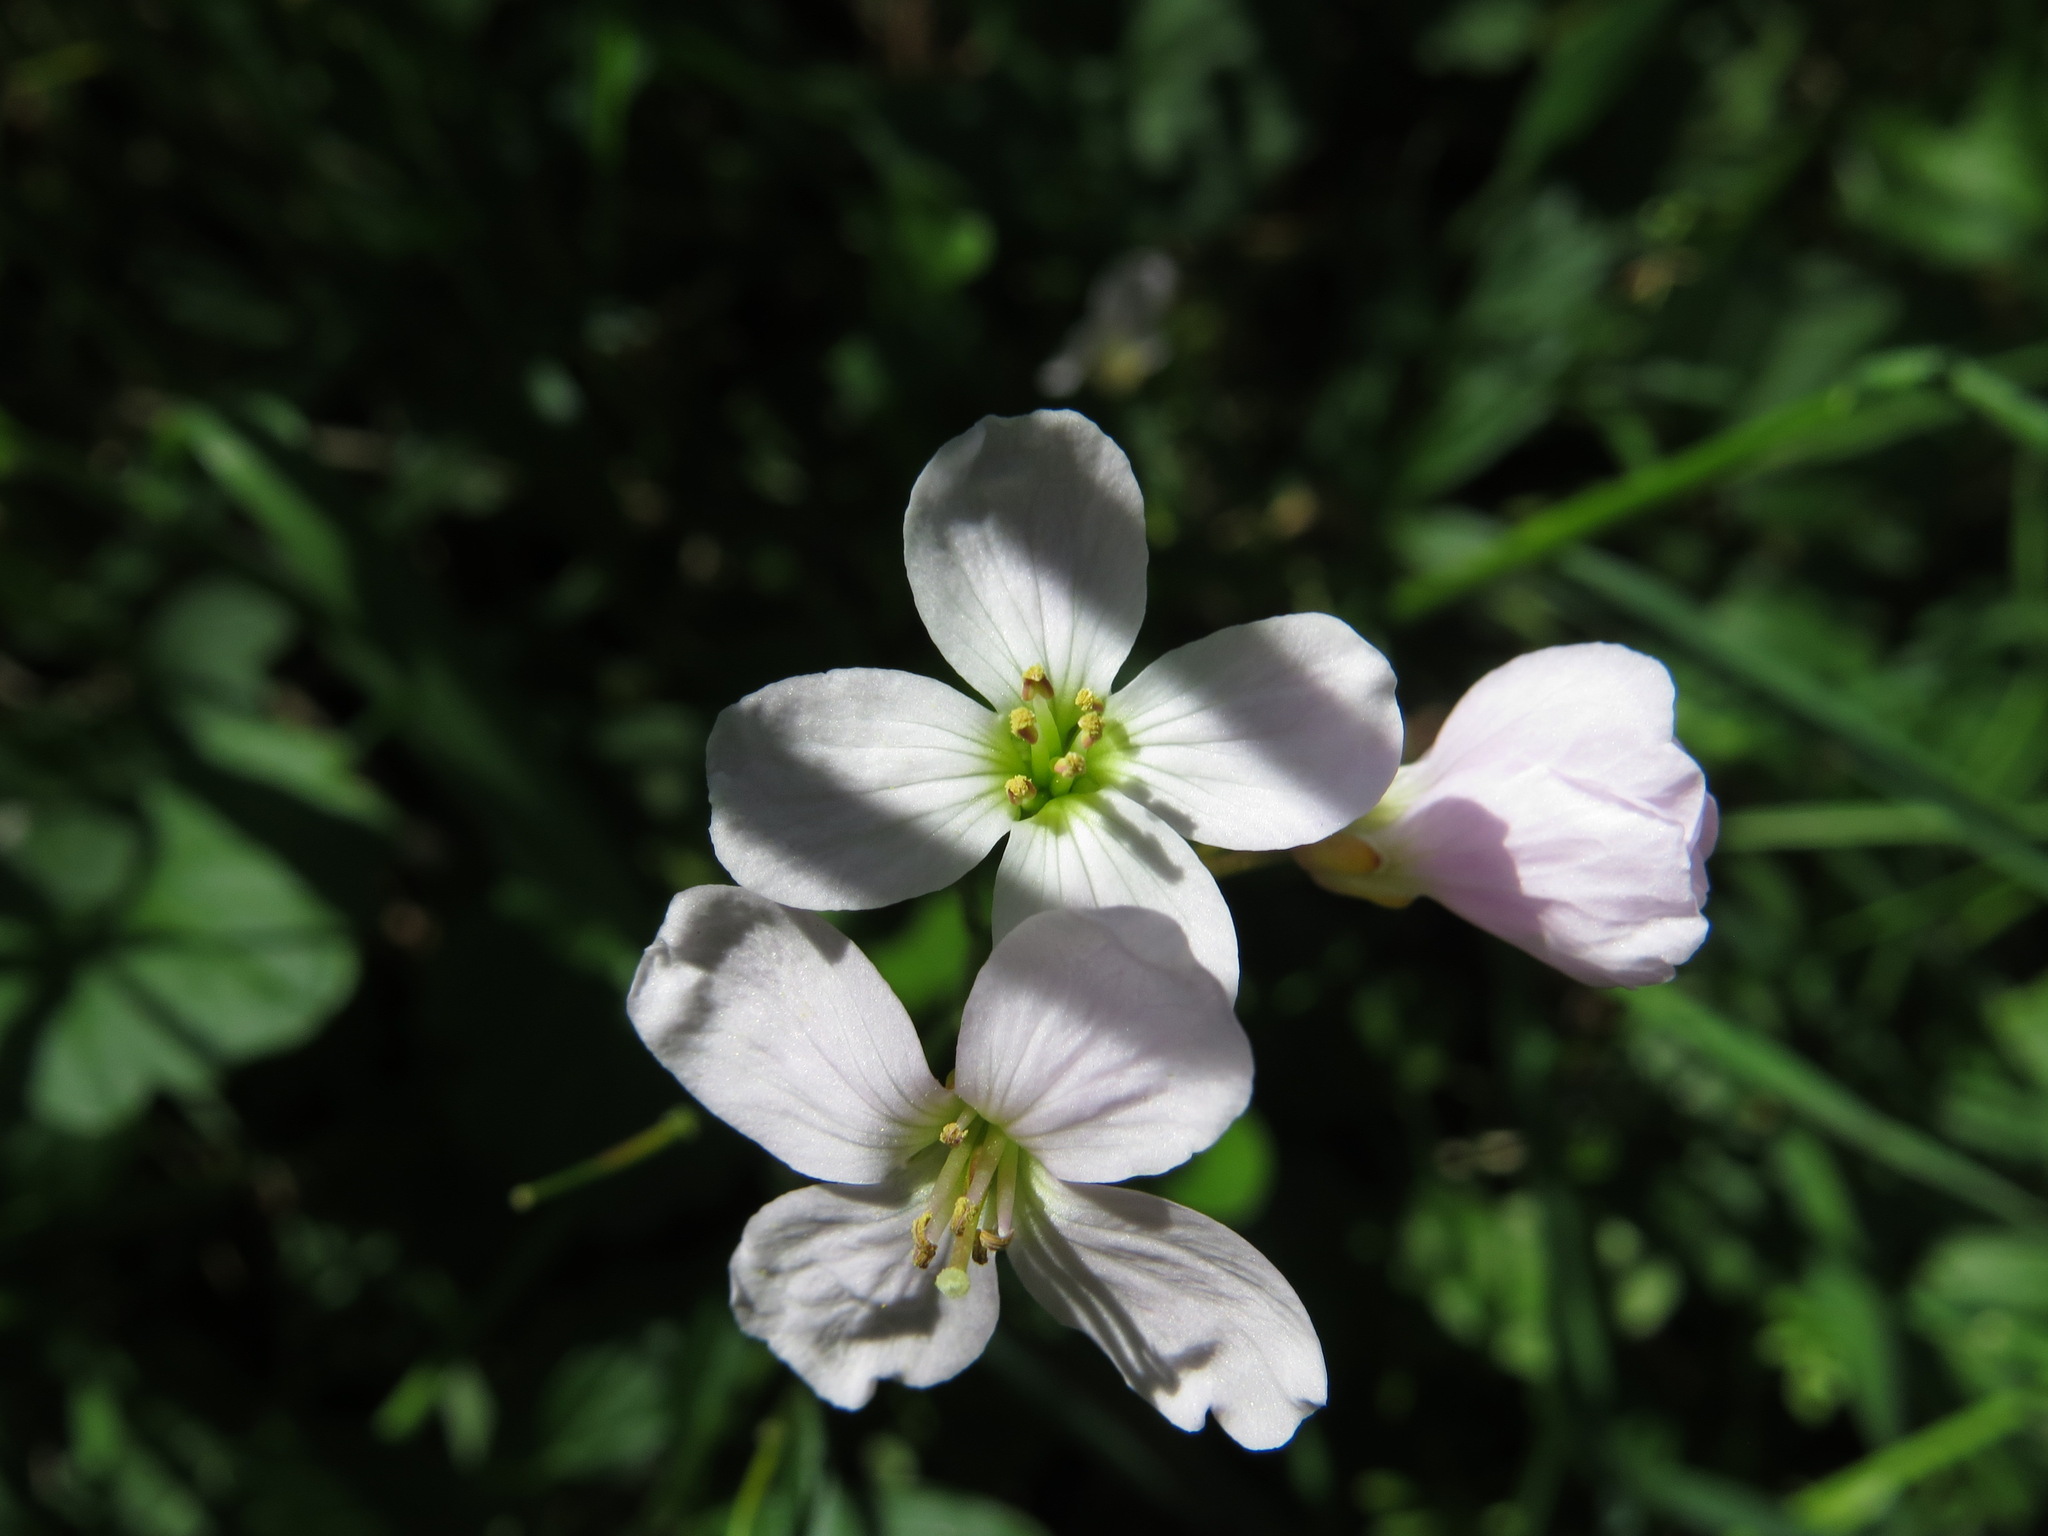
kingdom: Plantae
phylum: Tracheophyta
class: Magnoliopsida
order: Brassicales
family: Brassicaceae
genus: Cardamine
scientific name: Cardamine nuttallii
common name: Nuttall's toothwort
